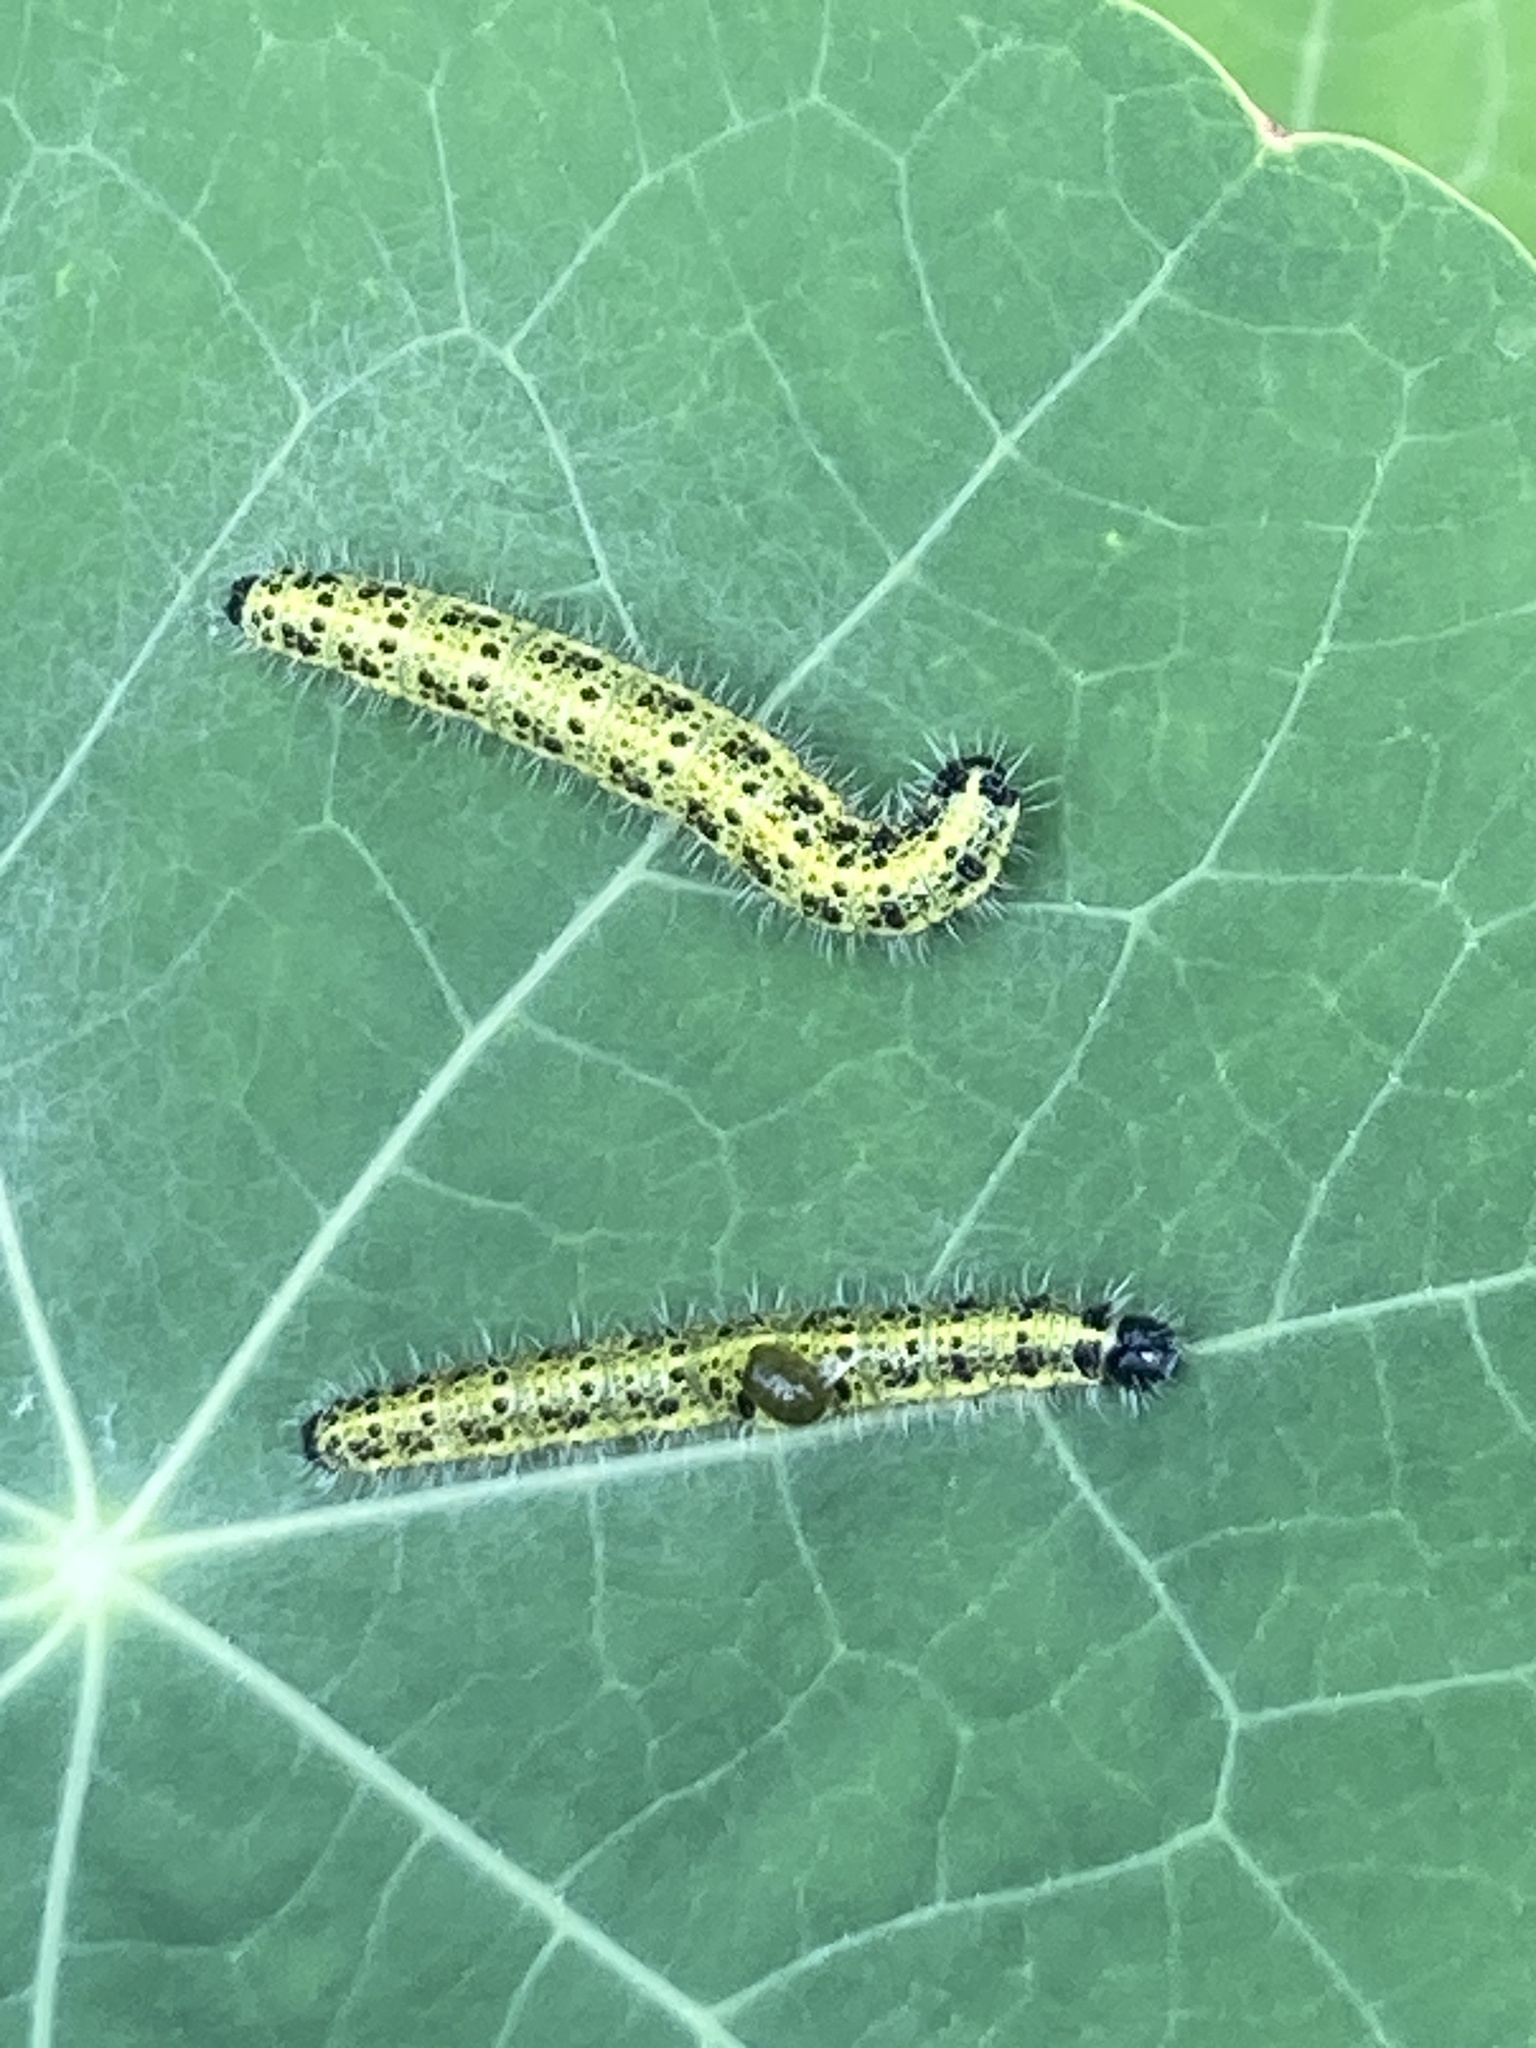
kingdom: Animalia
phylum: Arthropoda
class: Insecta
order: Lepidoptera
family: Pieridae
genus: Pieris
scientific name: Pieris brassicae
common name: Large white
